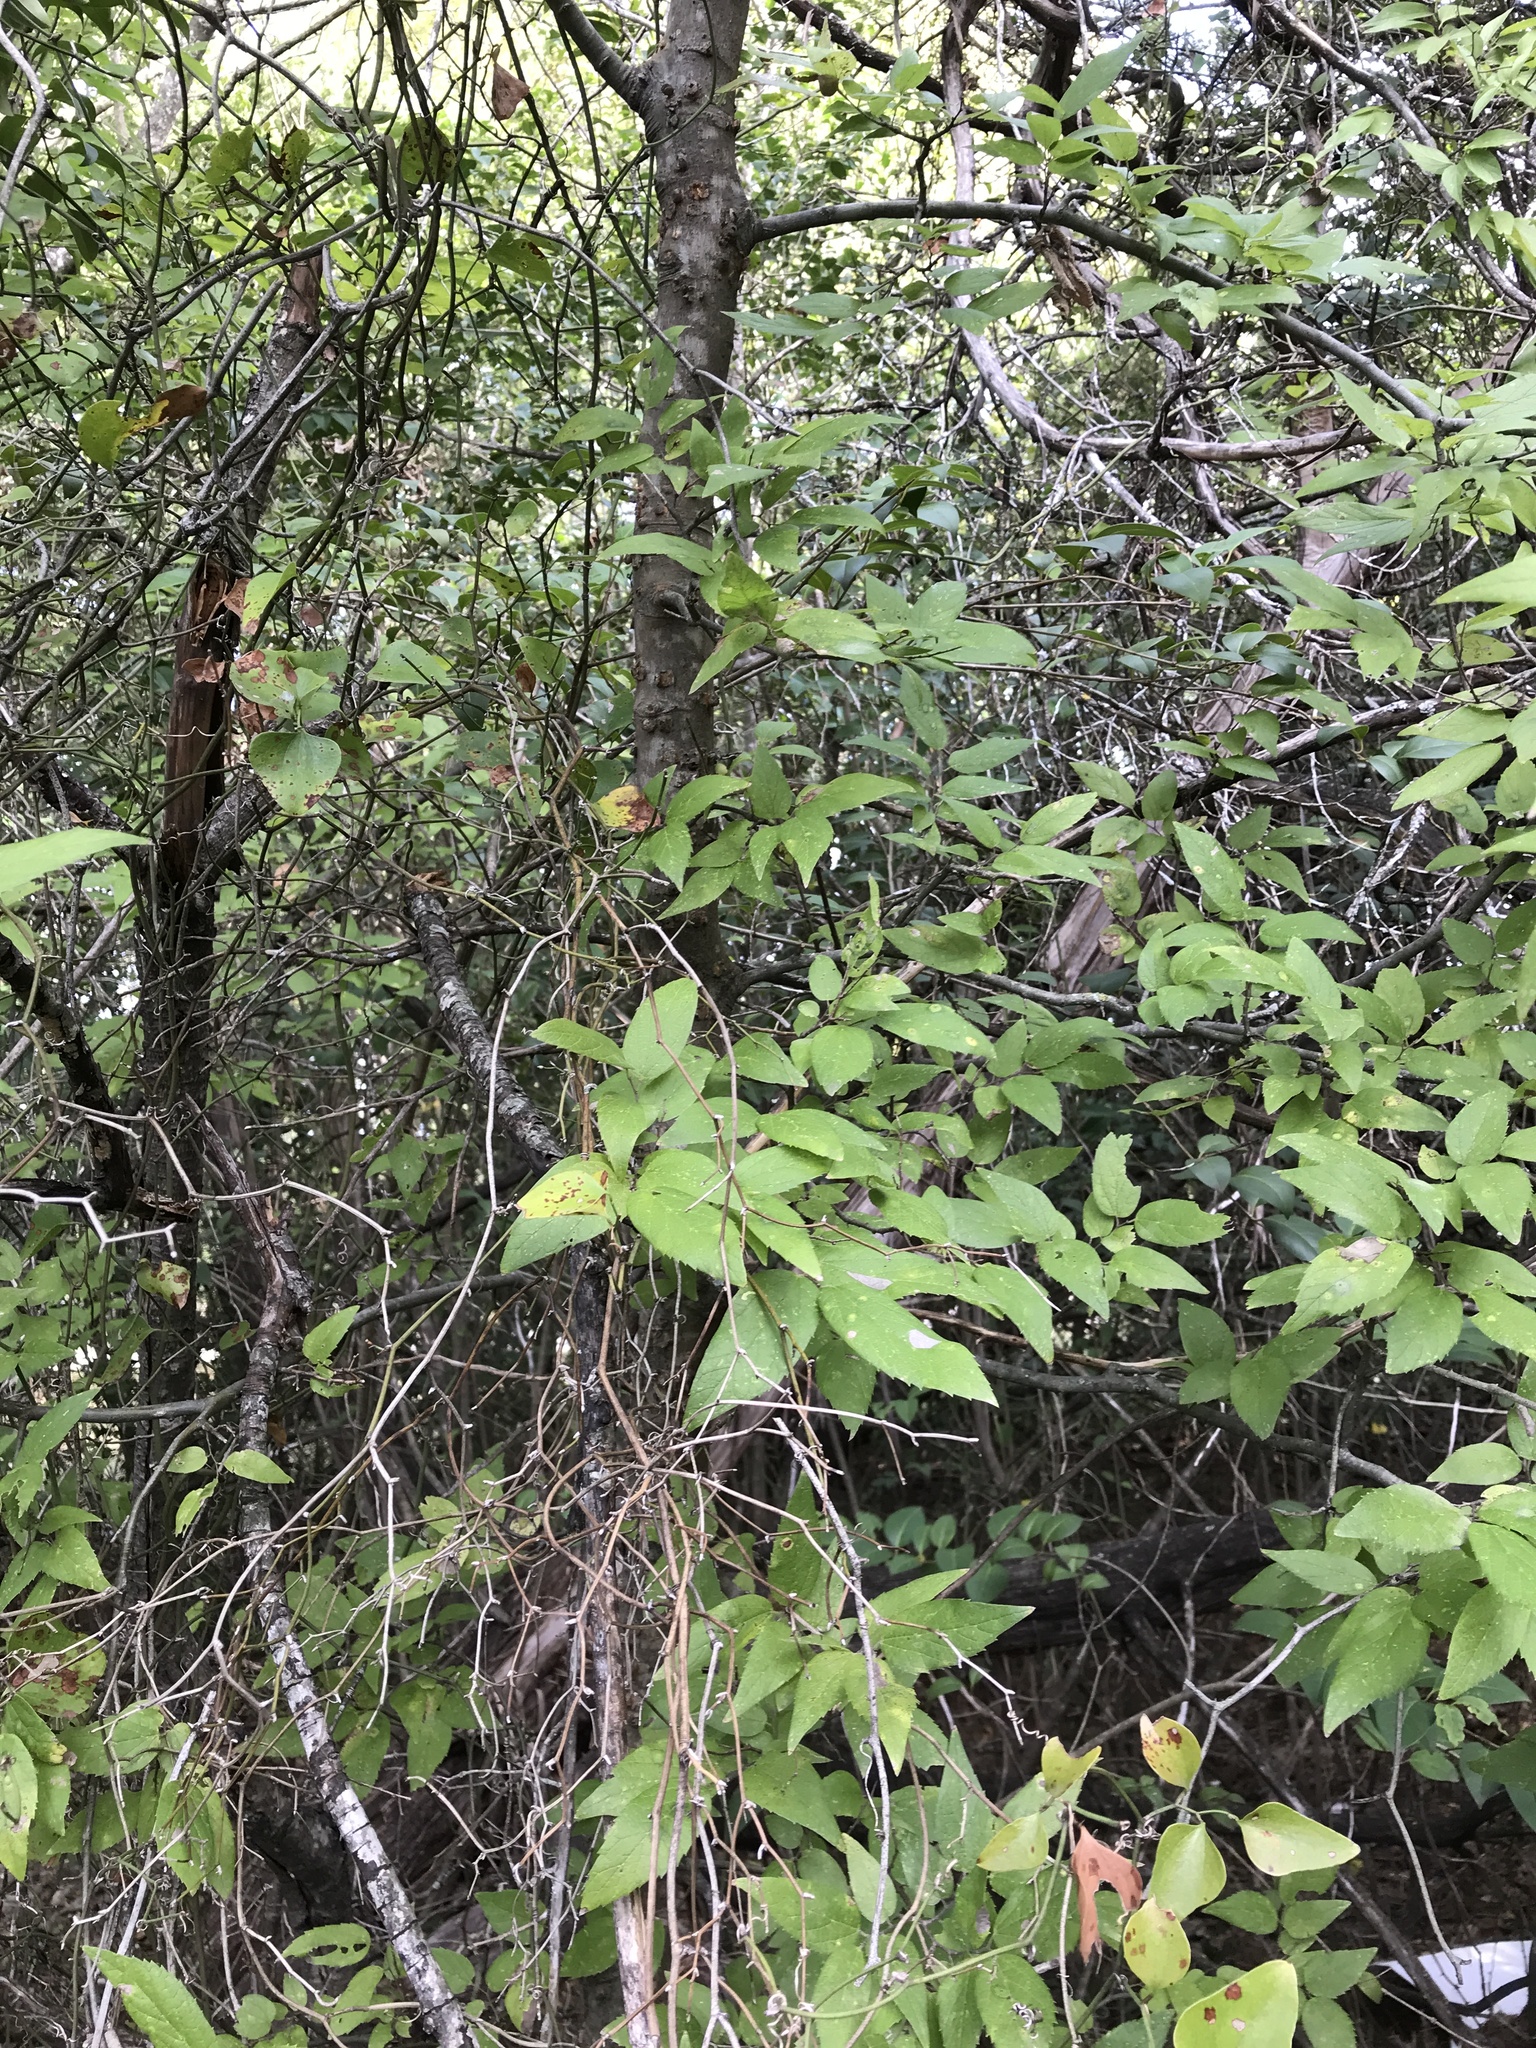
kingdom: Plantae
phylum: Tracheophyta
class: Magnoliopsida
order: Rosales
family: Cannabaceae
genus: Celtis
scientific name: Celtis laevigata
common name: Sugarberry
